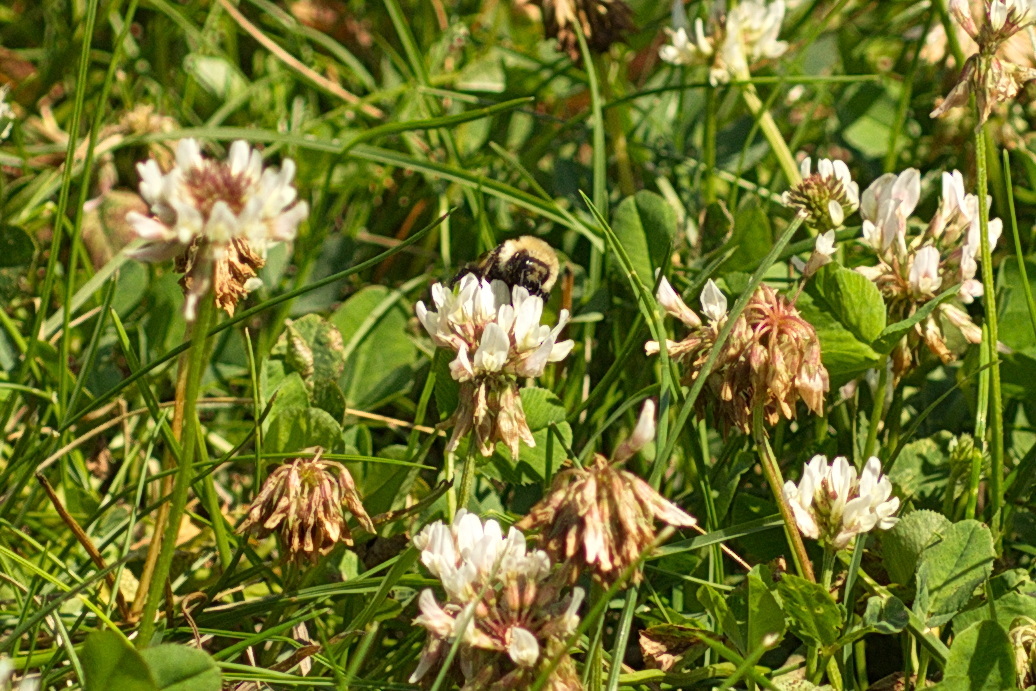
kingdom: Animalia
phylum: Arthropoda
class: Insecta
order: Hymenoptera
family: Apidae
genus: Bombus
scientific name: Bombus
